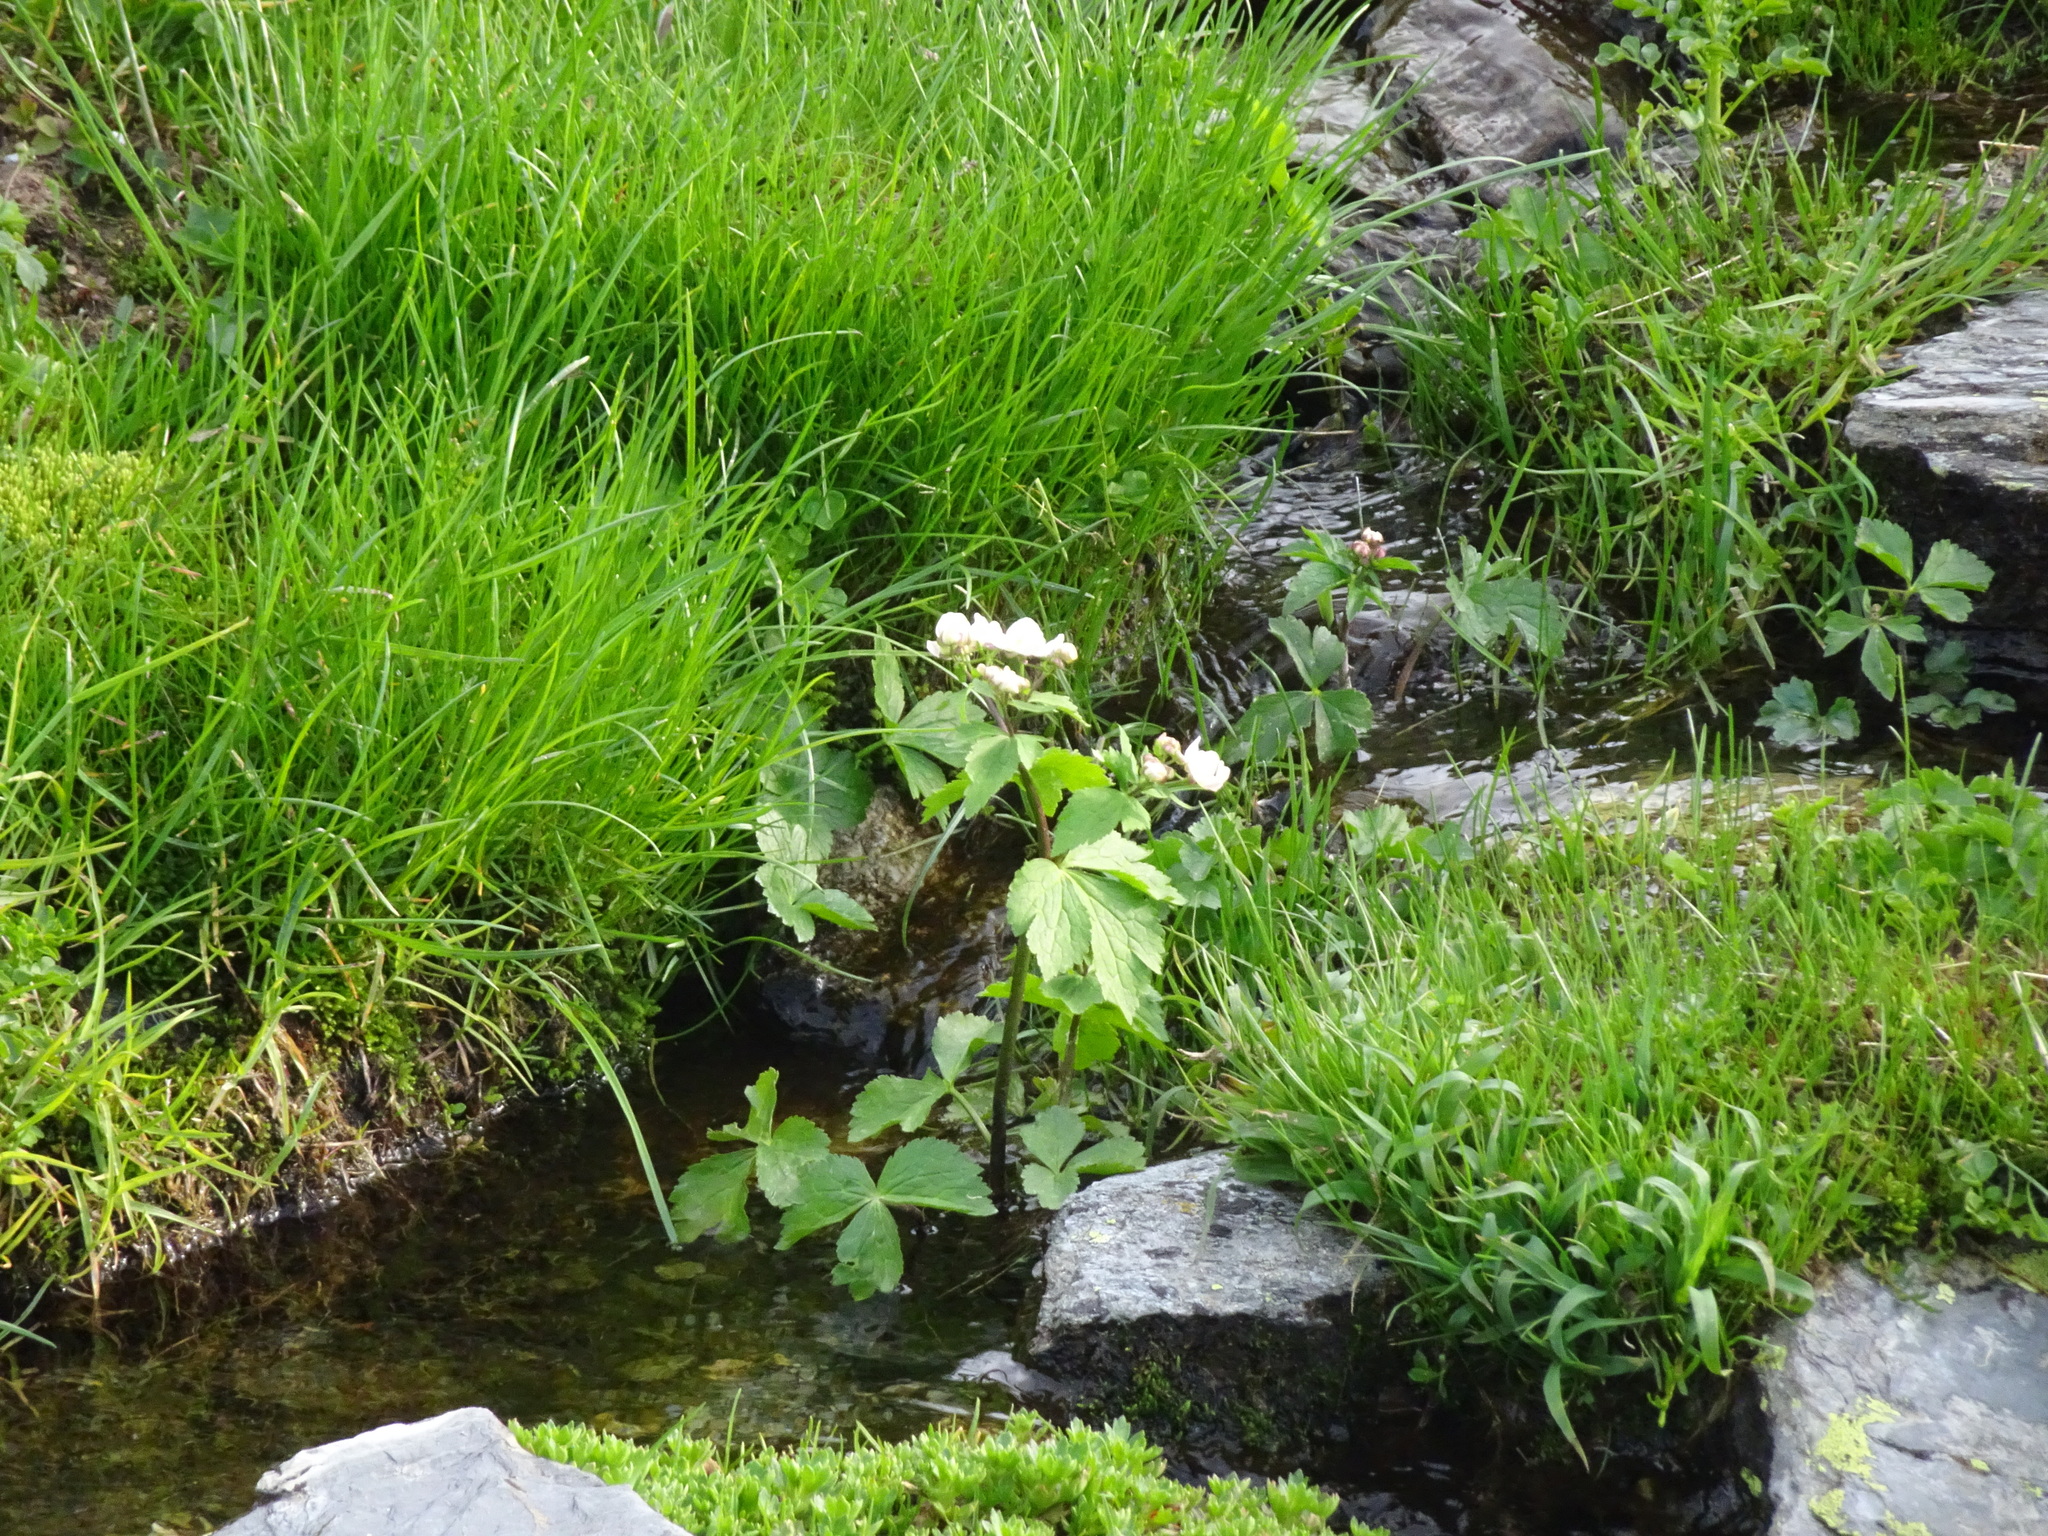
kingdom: Plantae
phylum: Tracheophyta
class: Magnoliopsida
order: Ranunculales
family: Ranunculaceae
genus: Ranunculus
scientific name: Ranunculus aconitifolius
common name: Aconite-leaved buttercup
